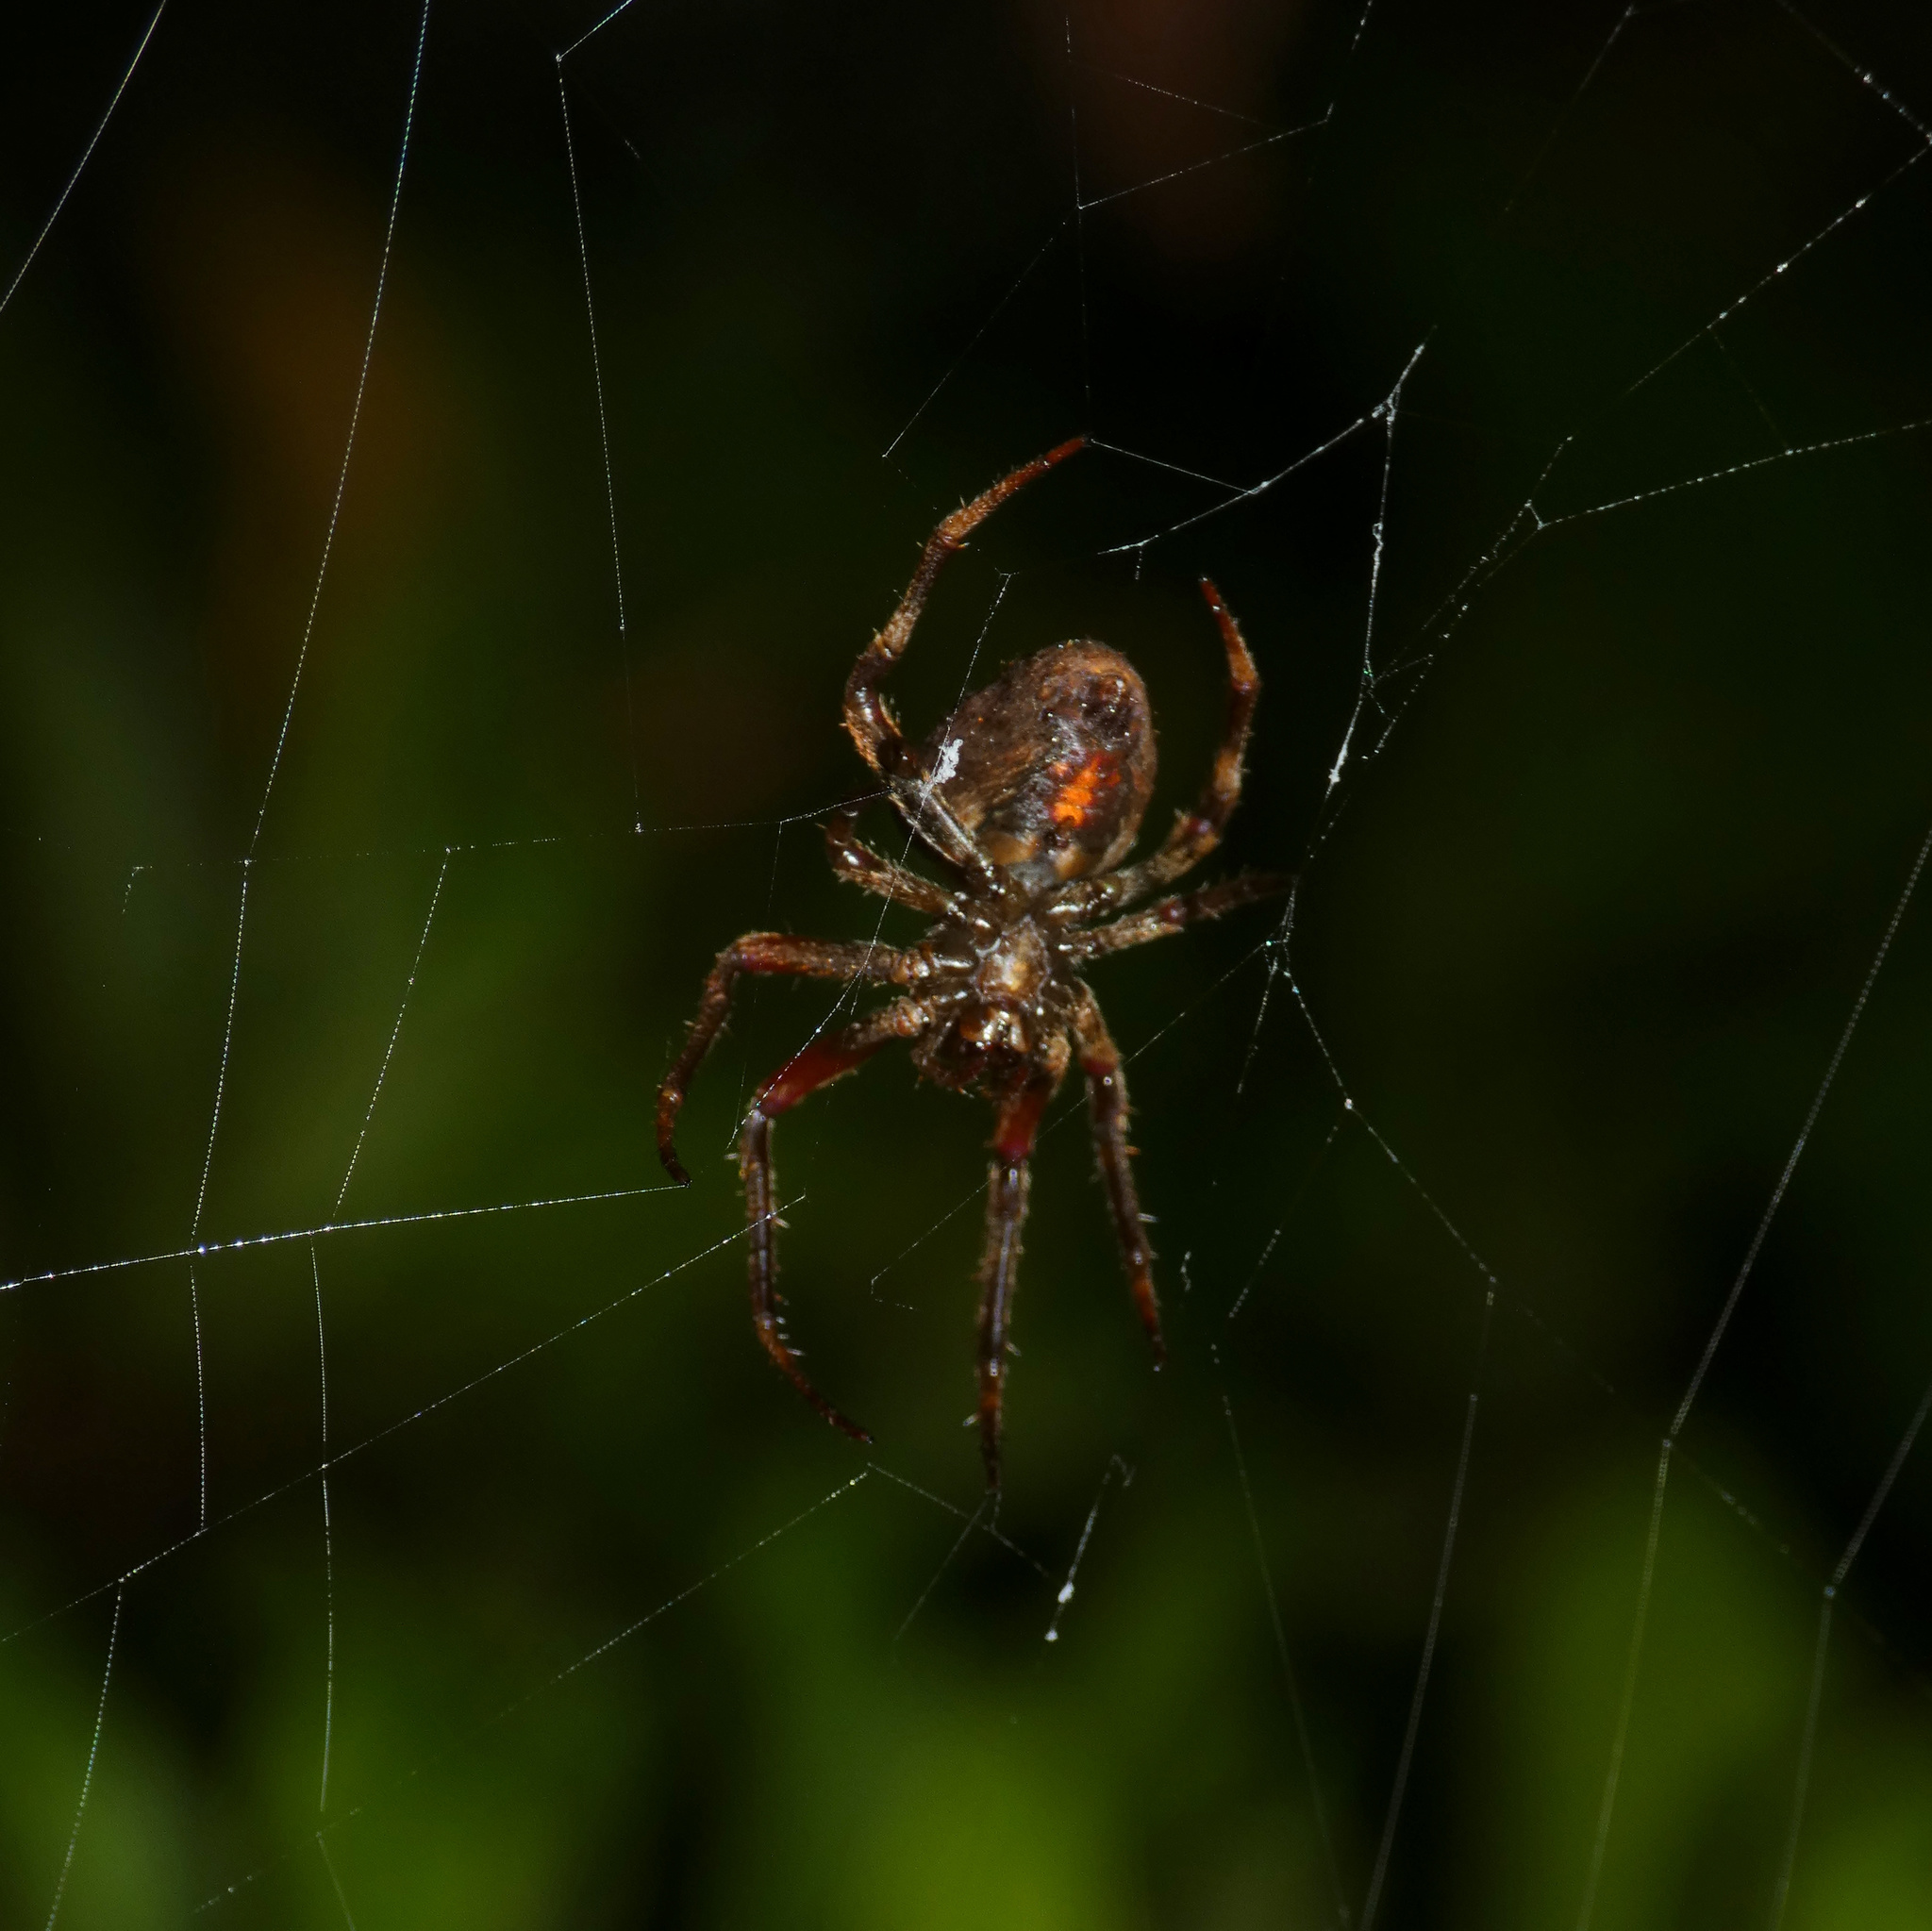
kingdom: Animalia
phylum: Arthropoda
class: Arachnida
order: Araneae
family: Araneidae
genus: Neoscona
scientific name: Neoscona triangula
